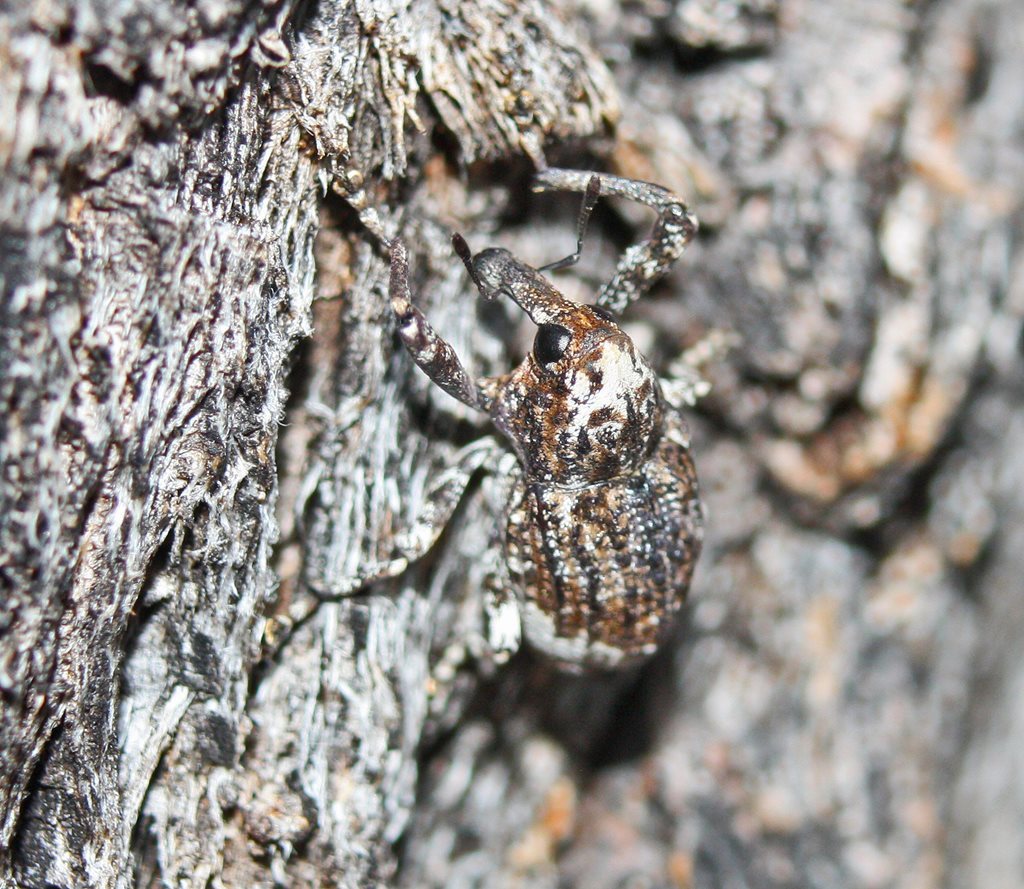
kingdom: Animalia
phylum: Arthropoda
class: Insecta
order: Coleoptera
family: Curculionidae
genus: Axionicus
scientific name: Axionicus insignis
